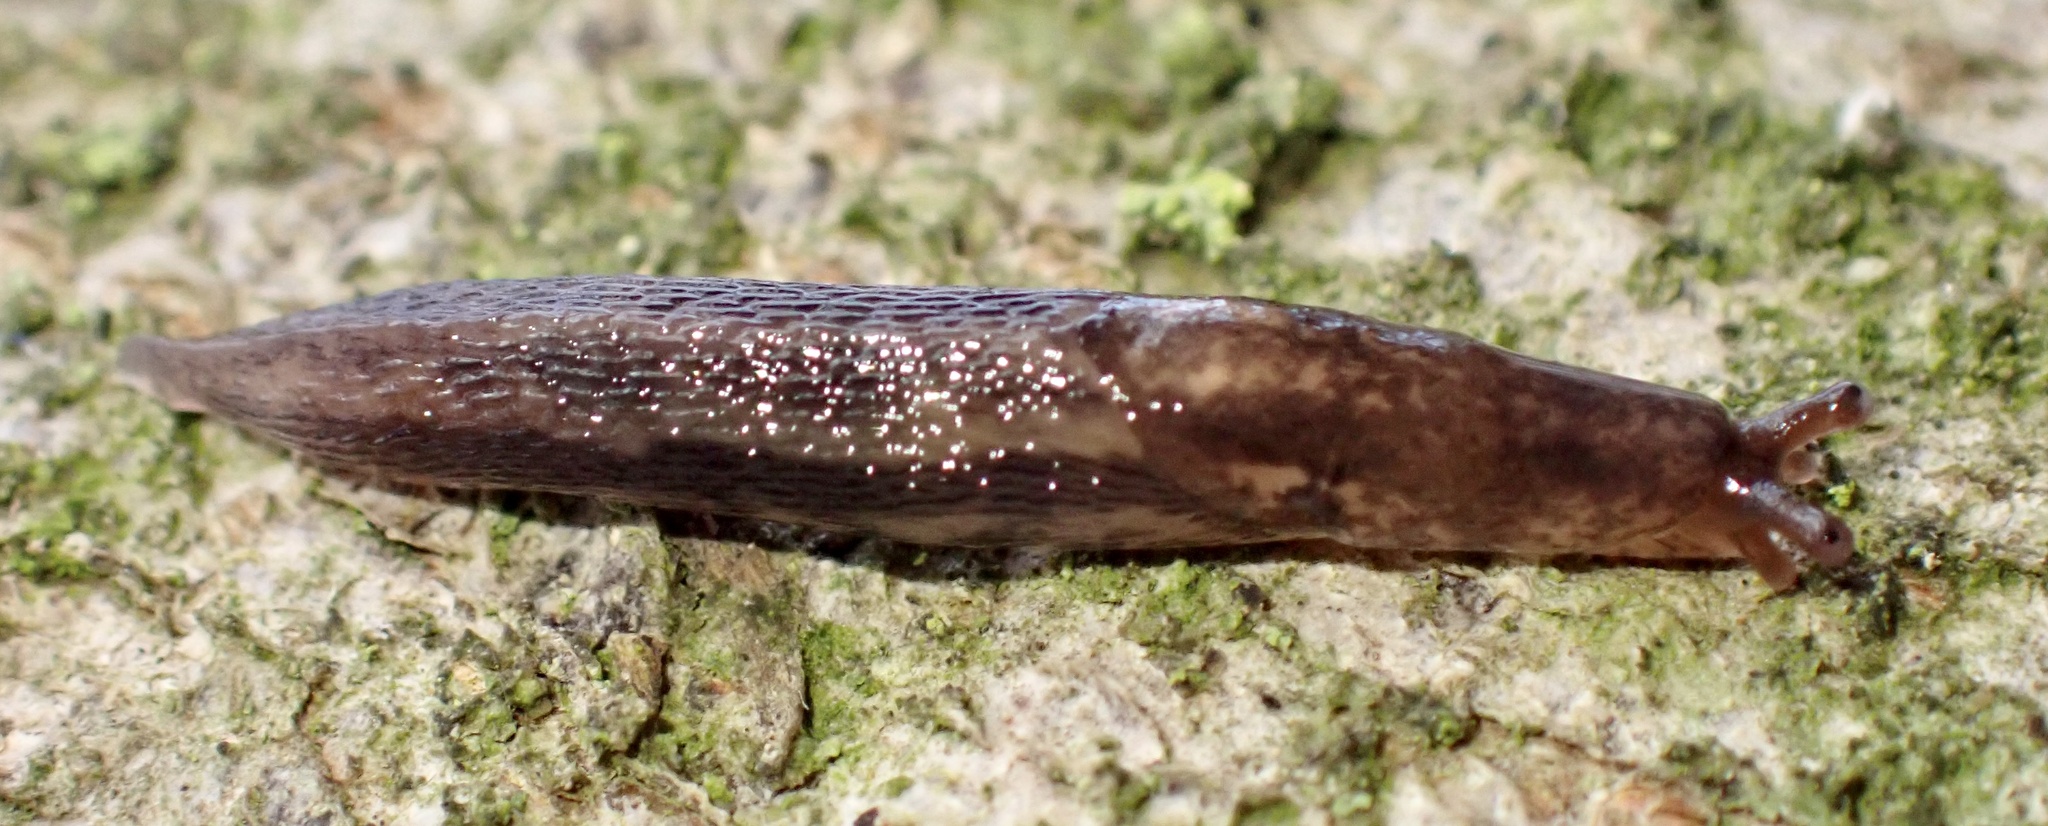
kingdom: Animalia
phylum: Mollusca
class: Gastropoda
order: Stylommatophora
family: Limacidae
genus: Limax
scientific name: Limax maximus
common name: Great grey slug
